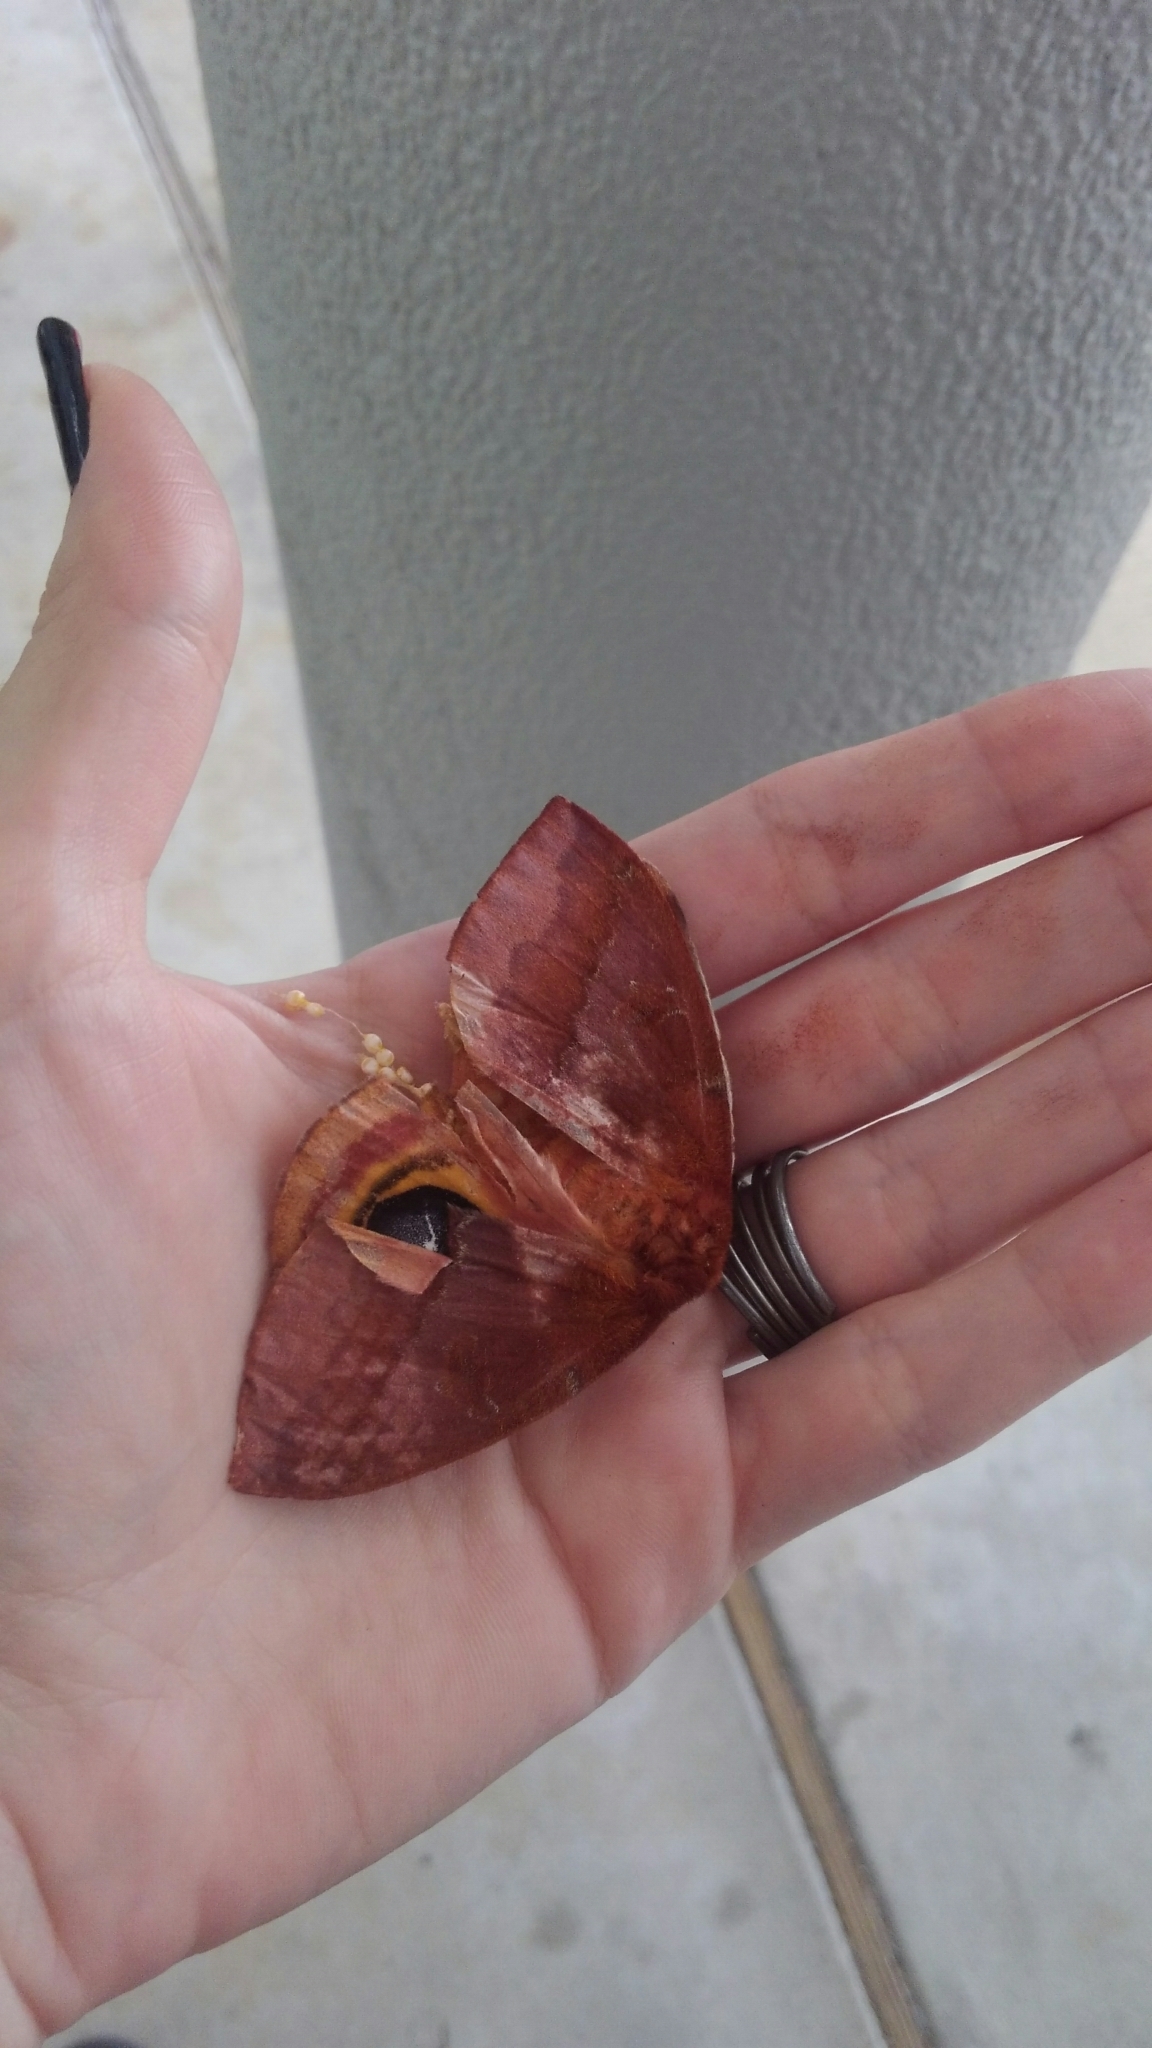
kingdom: Animalia
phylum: Arthropoda
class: Insecta
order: Lepidoptera
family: Saturniidae
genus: Automeris
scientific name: Automeris io
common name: Io moth
